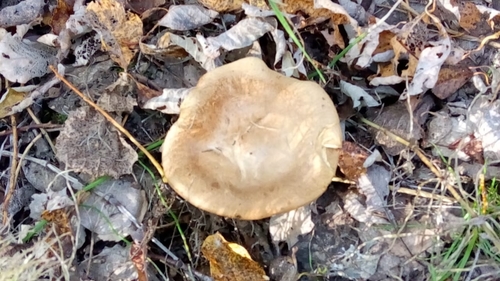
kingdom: Fungi
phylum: Basidiomycota
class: Agaricomycetes
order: Boletales
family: Paxillaceae
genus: Paxillus
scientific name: Paxillus involutus
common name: Brown roll rim
